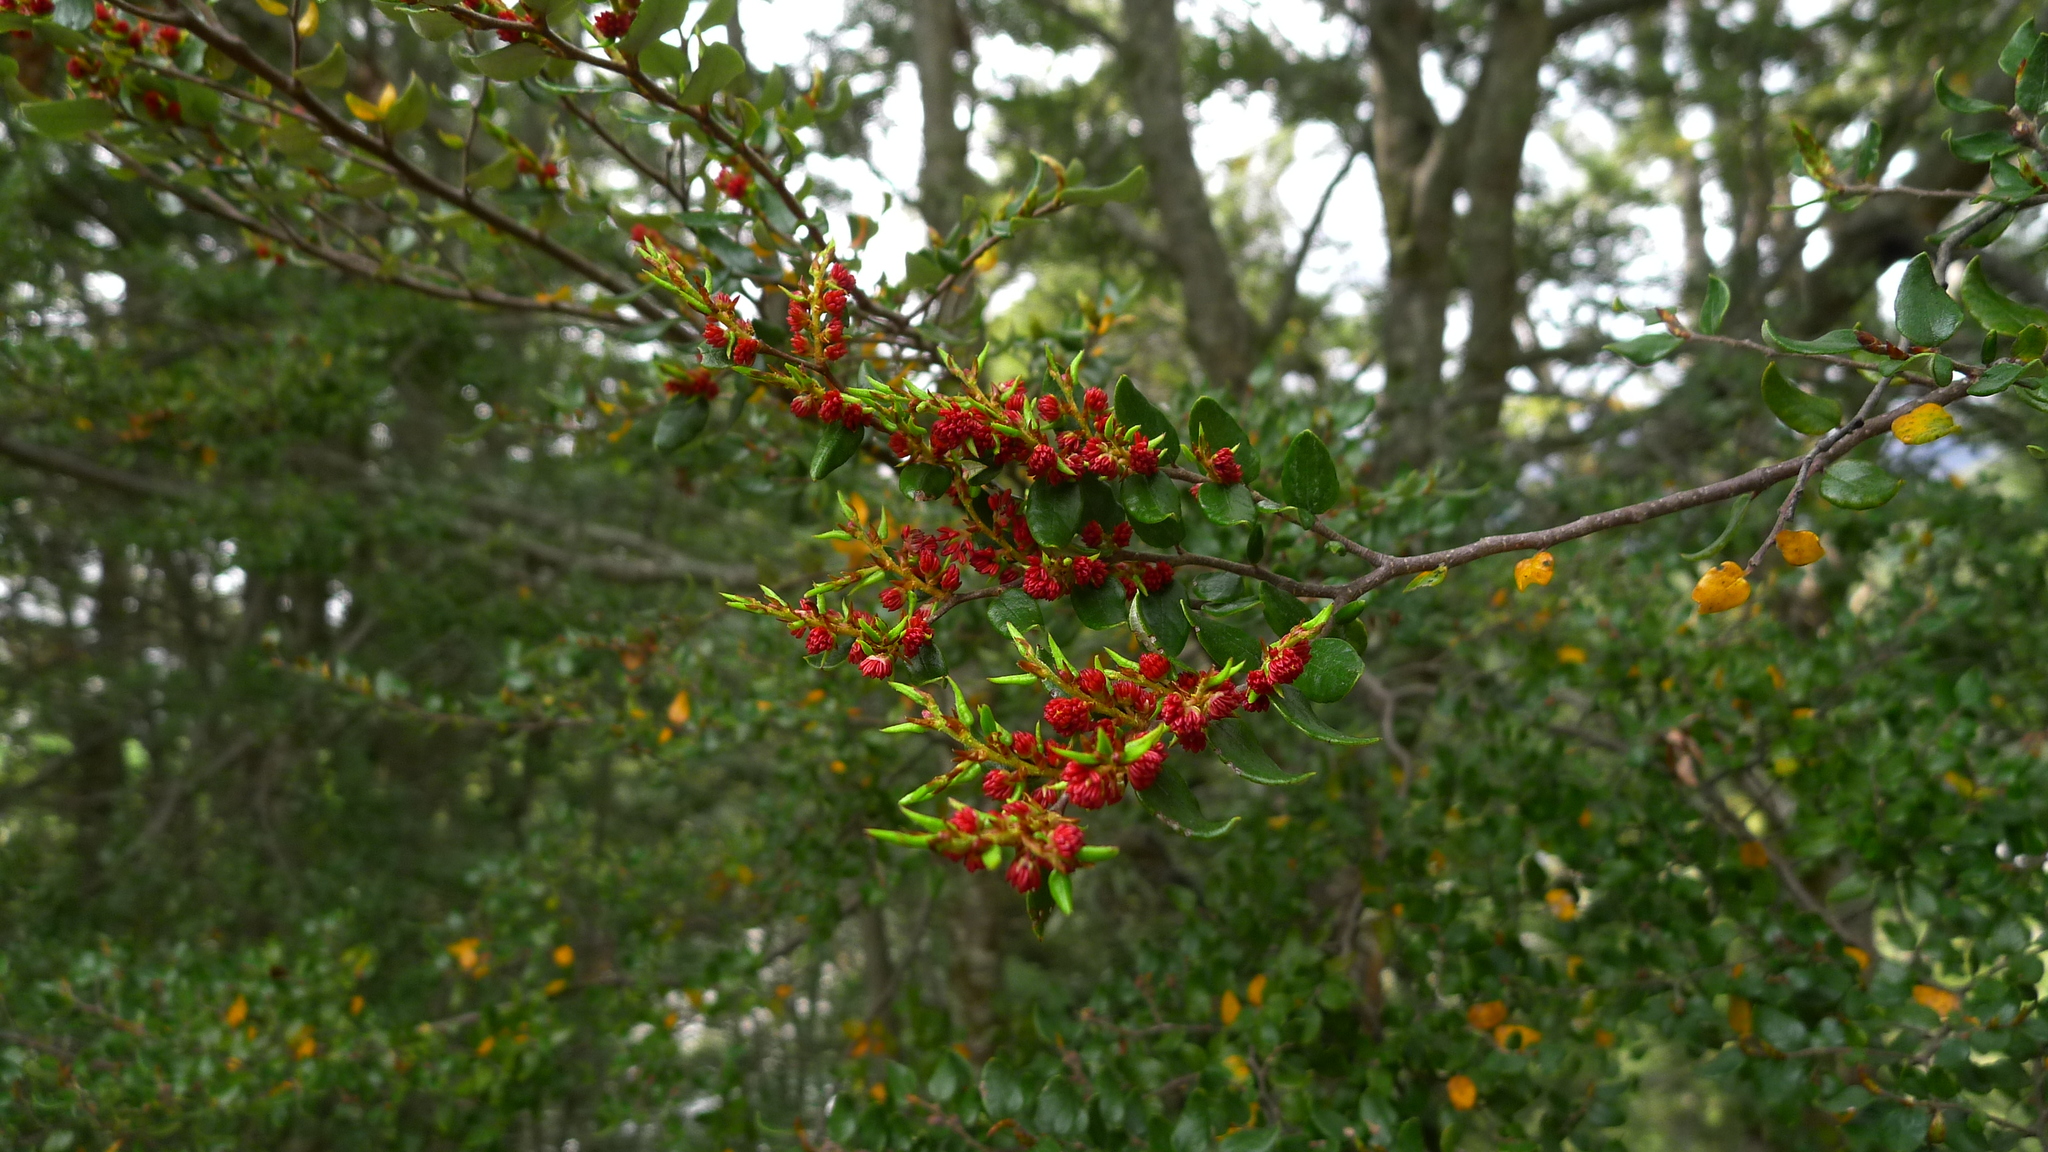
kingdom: Plantae
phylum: Tracheophyta
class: Magnoliopsida
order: Fagales
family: Nothofagaceae
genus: Nothofagus
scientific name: Nothofagus cliffortioides
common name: Mountain beech
